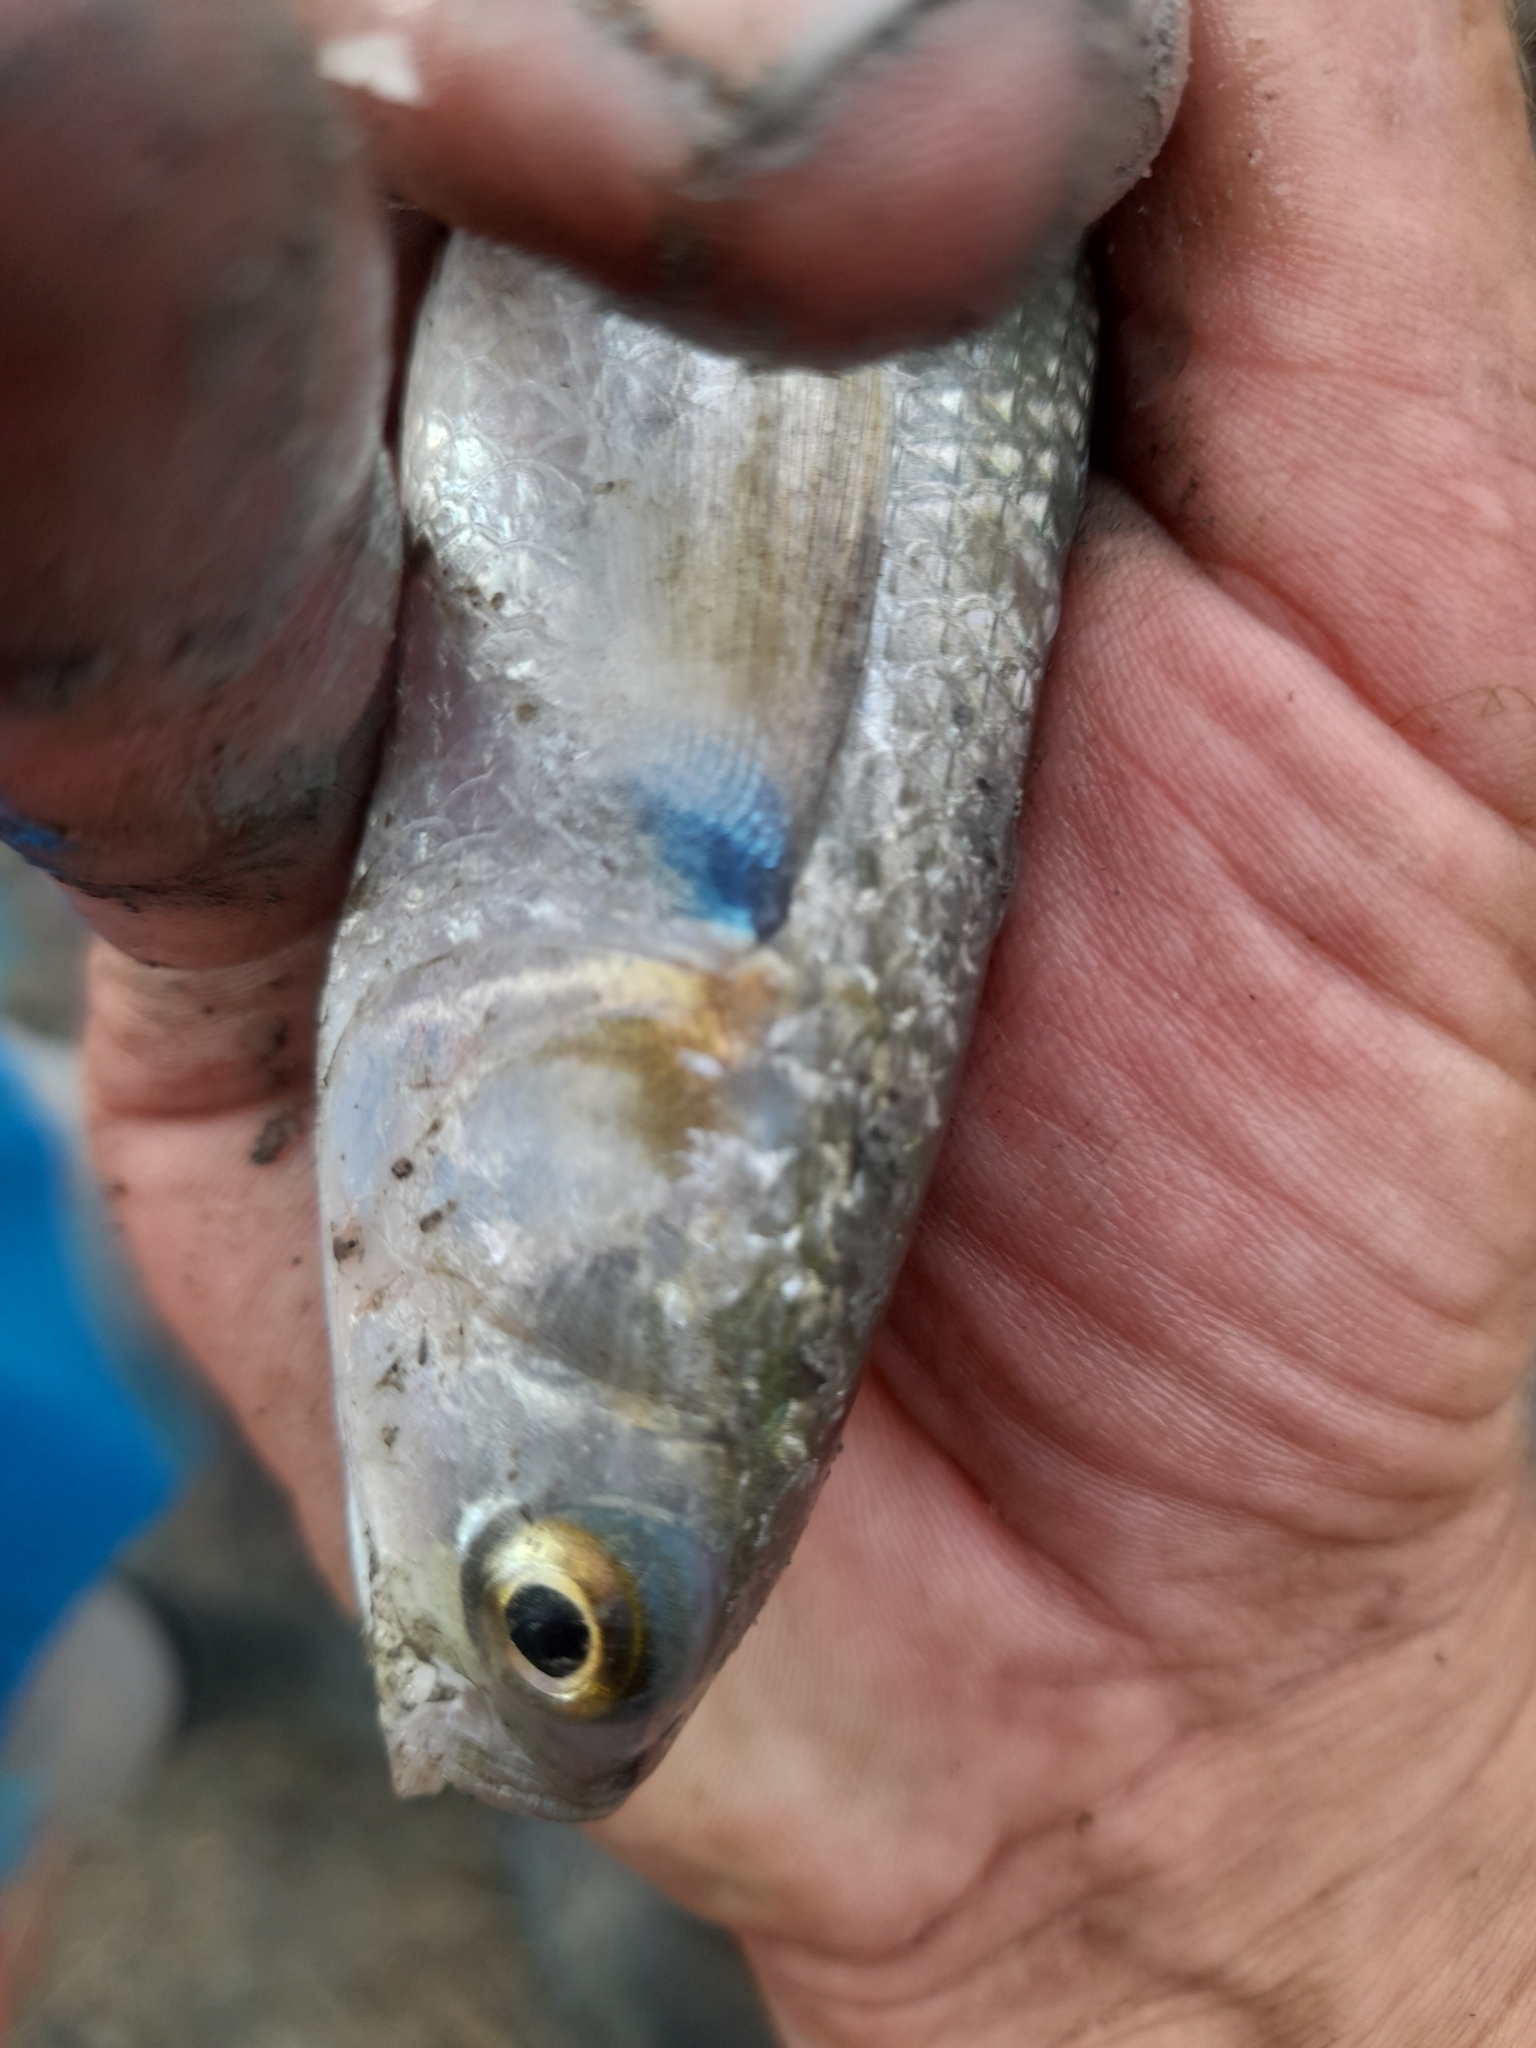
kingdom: Animalia
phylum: Chordata
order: Mugiliformes
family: Mugilidae
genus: Mugil
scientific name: Mugil cephalus
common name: Grey mullet
